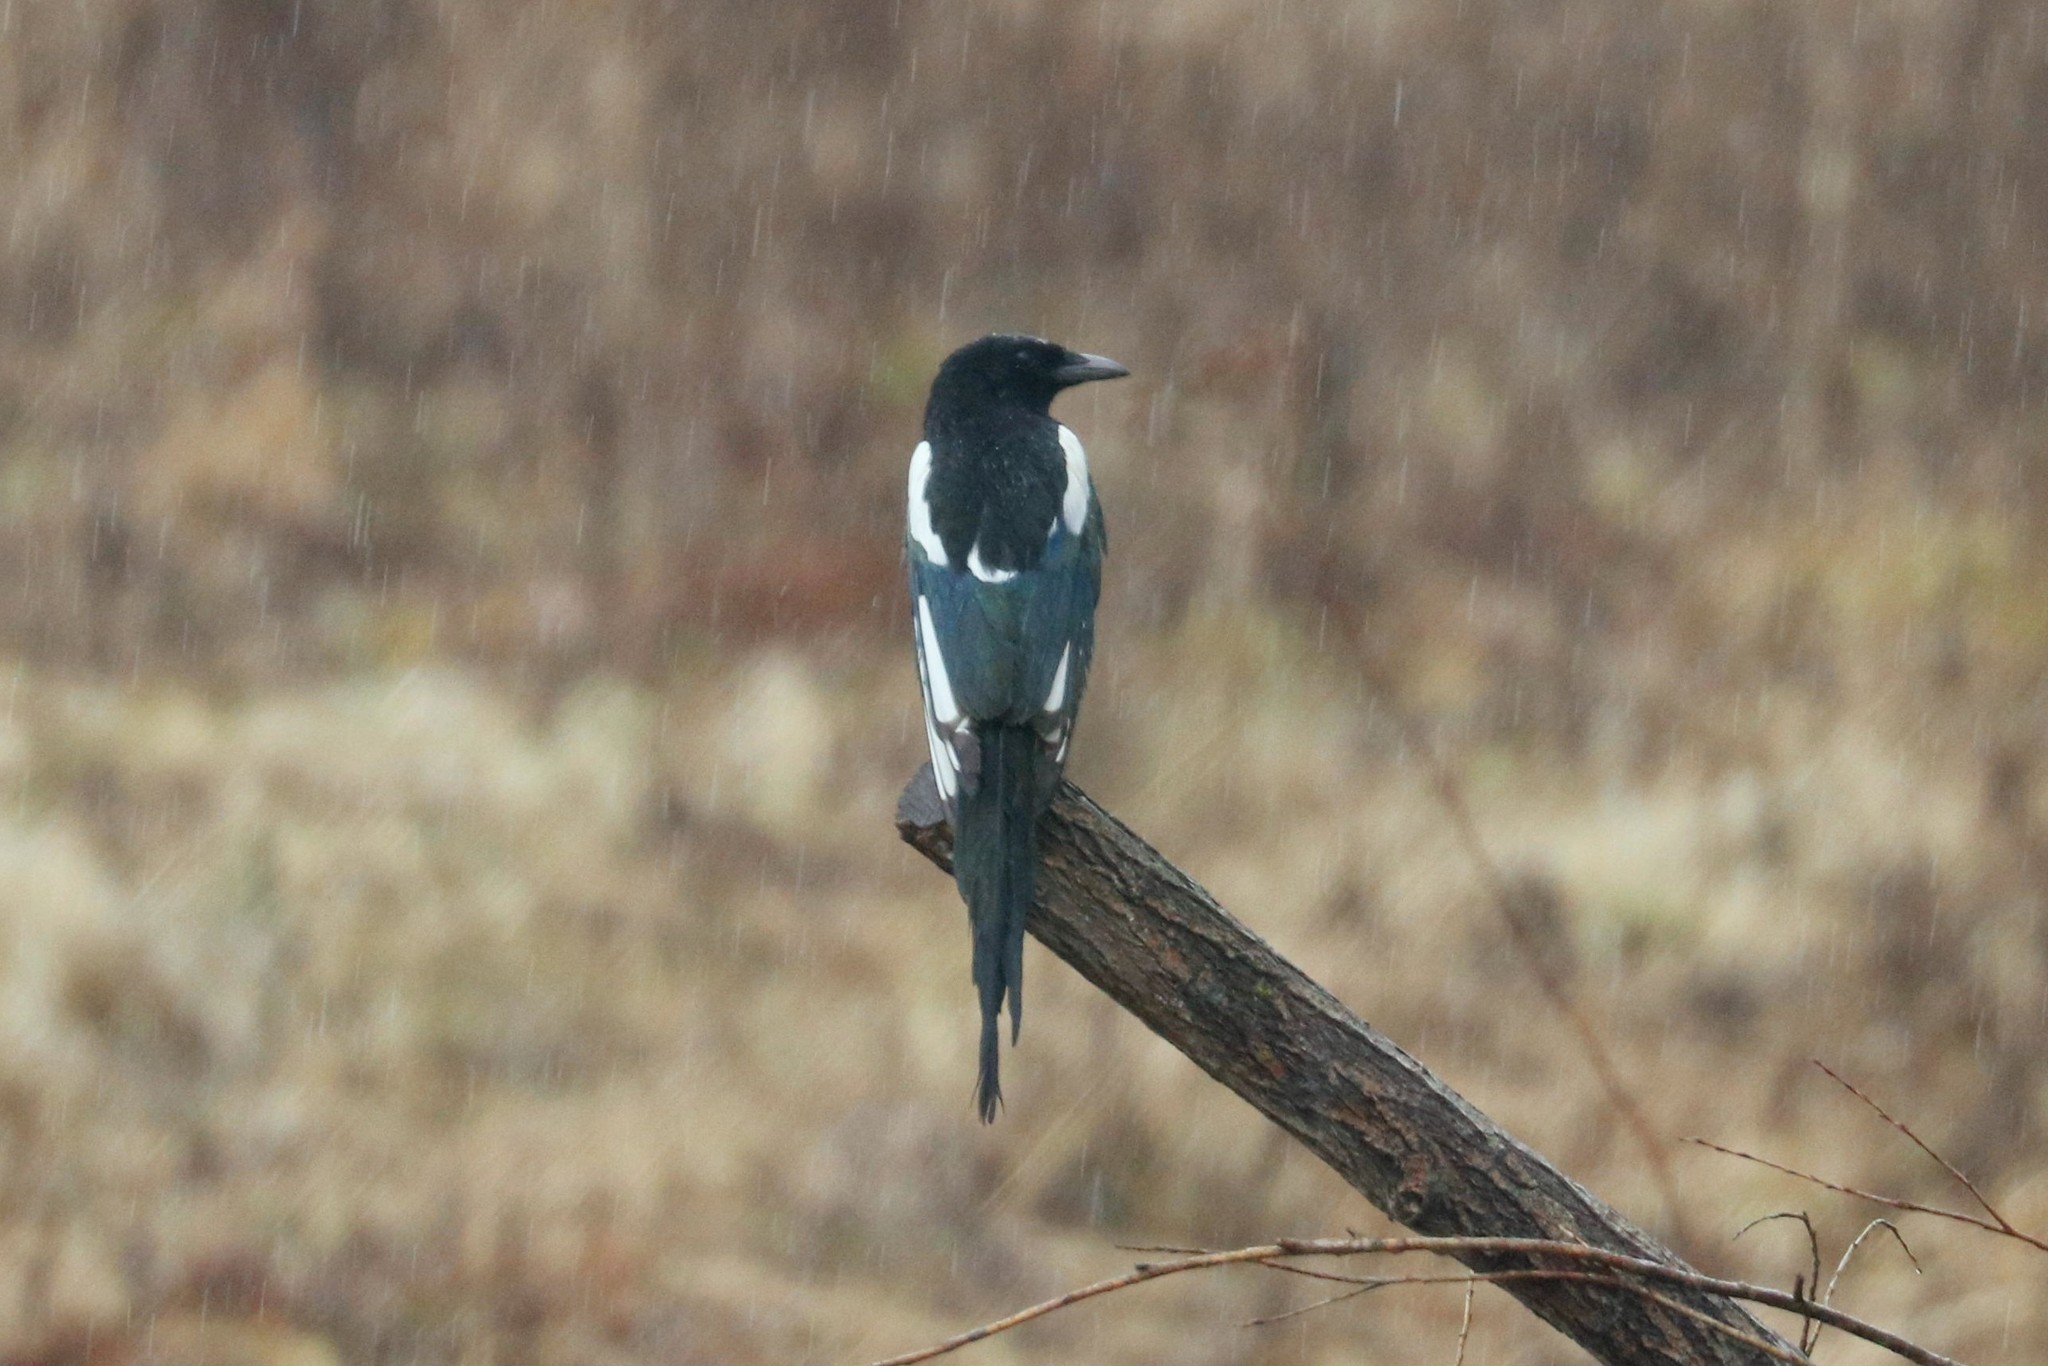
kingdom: Animalia
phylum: Chordata
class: Aves
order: Passeriformes
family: Corvidae
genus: Pica
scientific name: Pica pica
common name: Eurasian magpie
